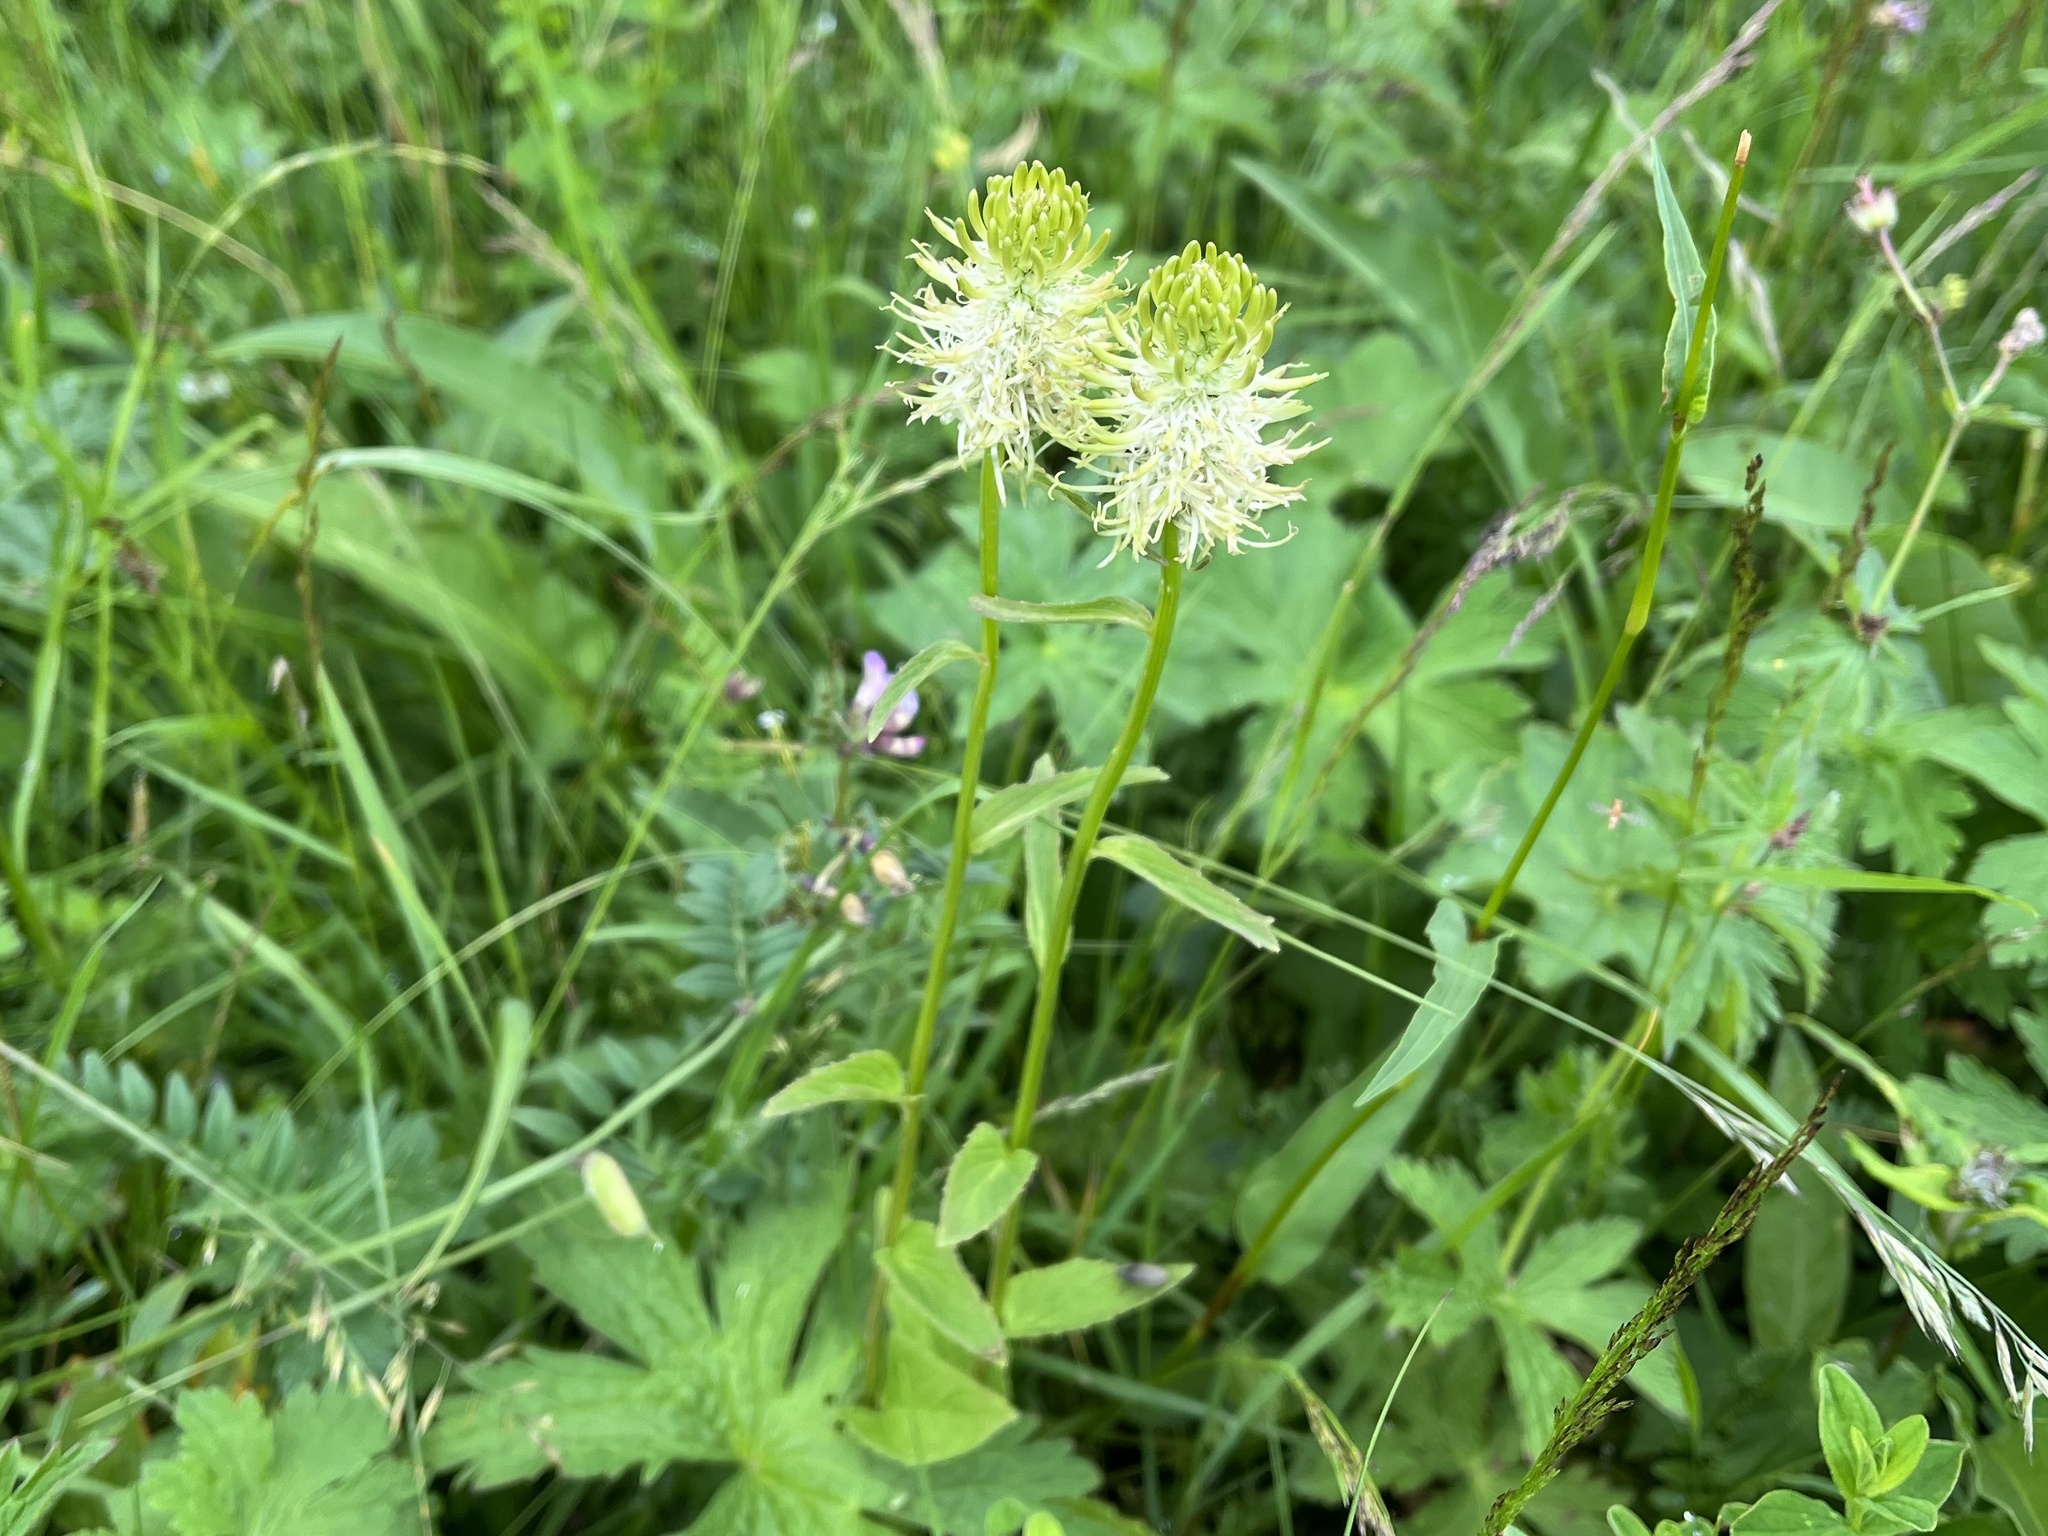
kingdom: Plantae
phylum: Tracheophyta
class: Magnoliopsida
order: Asterales
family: Campanulaceae
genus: Phyteuma
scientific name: Phyteuma spicatum
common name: Spiked rampion
